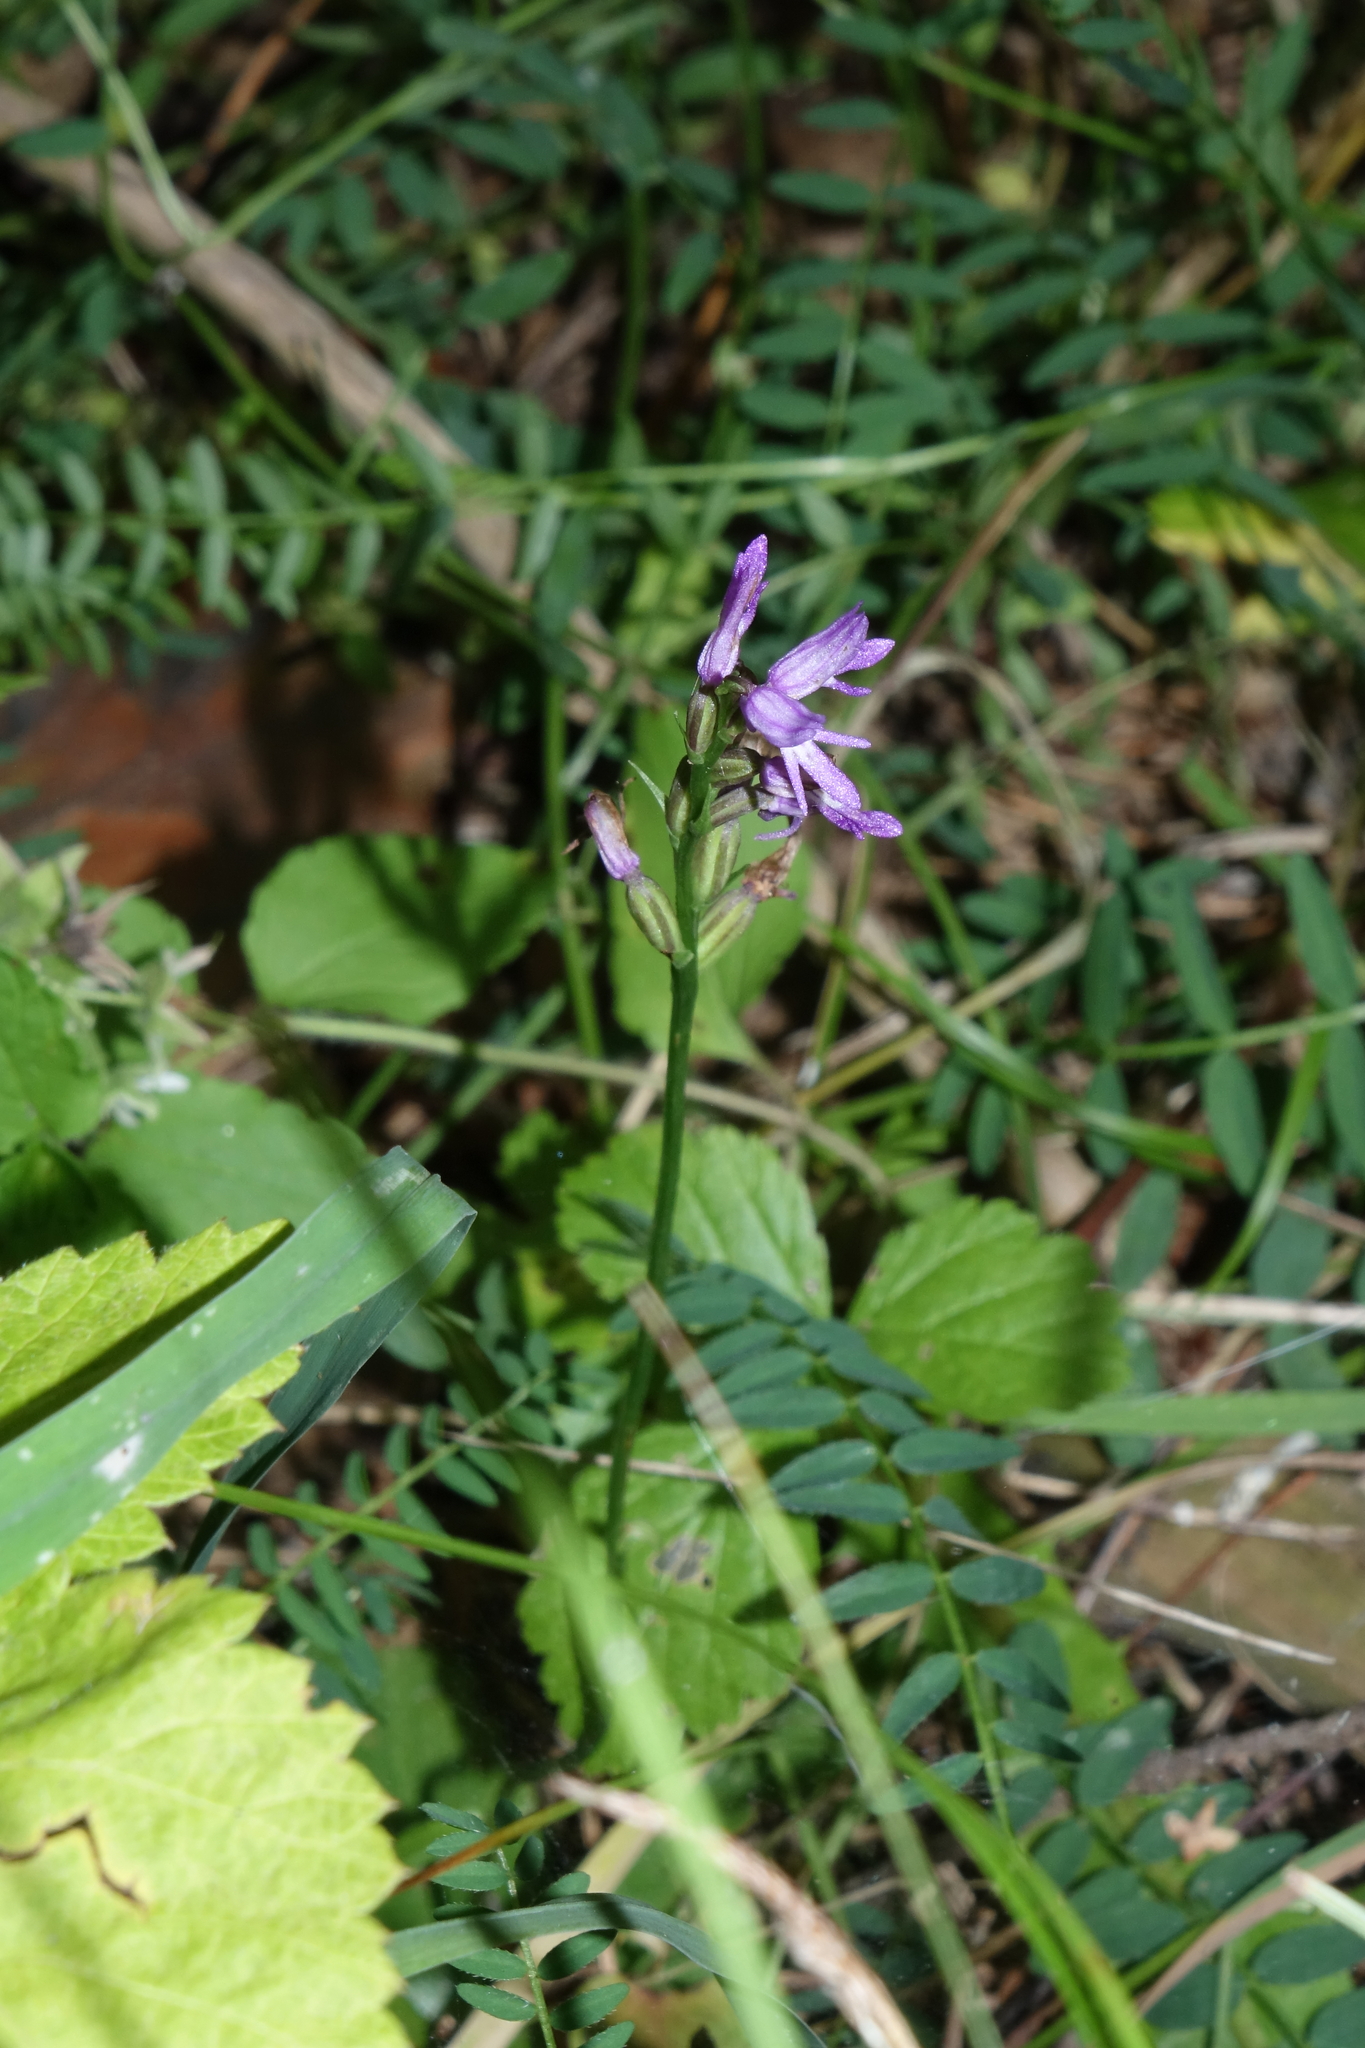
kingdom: Plantae
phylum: Tracheophyta
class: Liliopsida
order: Asparagales
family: Orchidaceae
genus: Hemipilia
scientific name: Hemipilia cucullata
